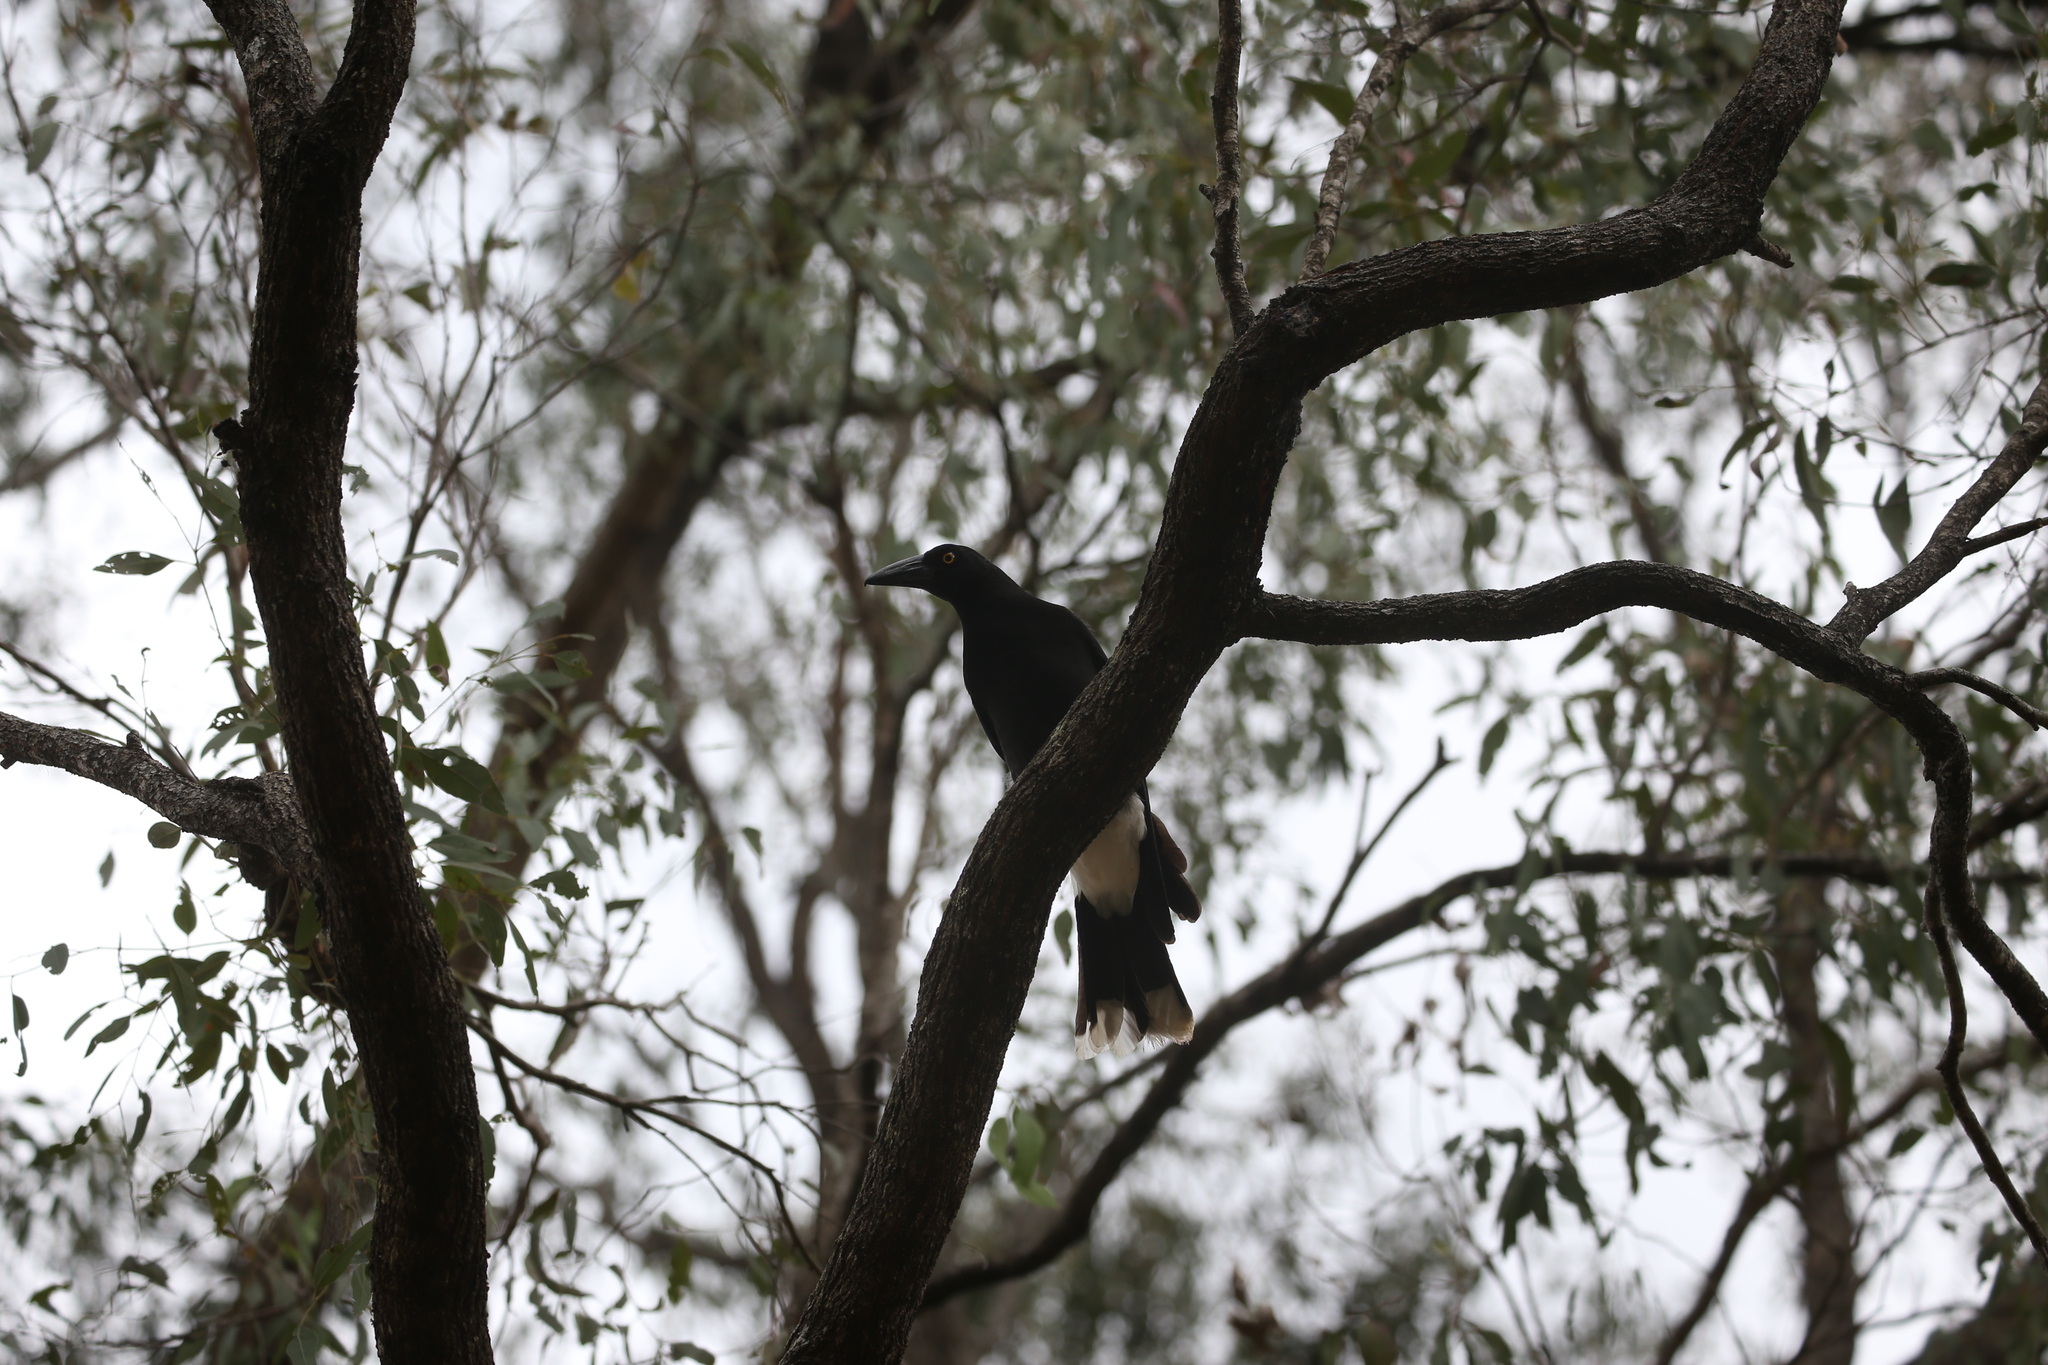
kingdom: Animalia
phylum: Chordata
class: Aves
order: Passeriformes
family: Cracticidae
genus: Strepera
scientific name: Strepera graculina
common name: Pied currawong
